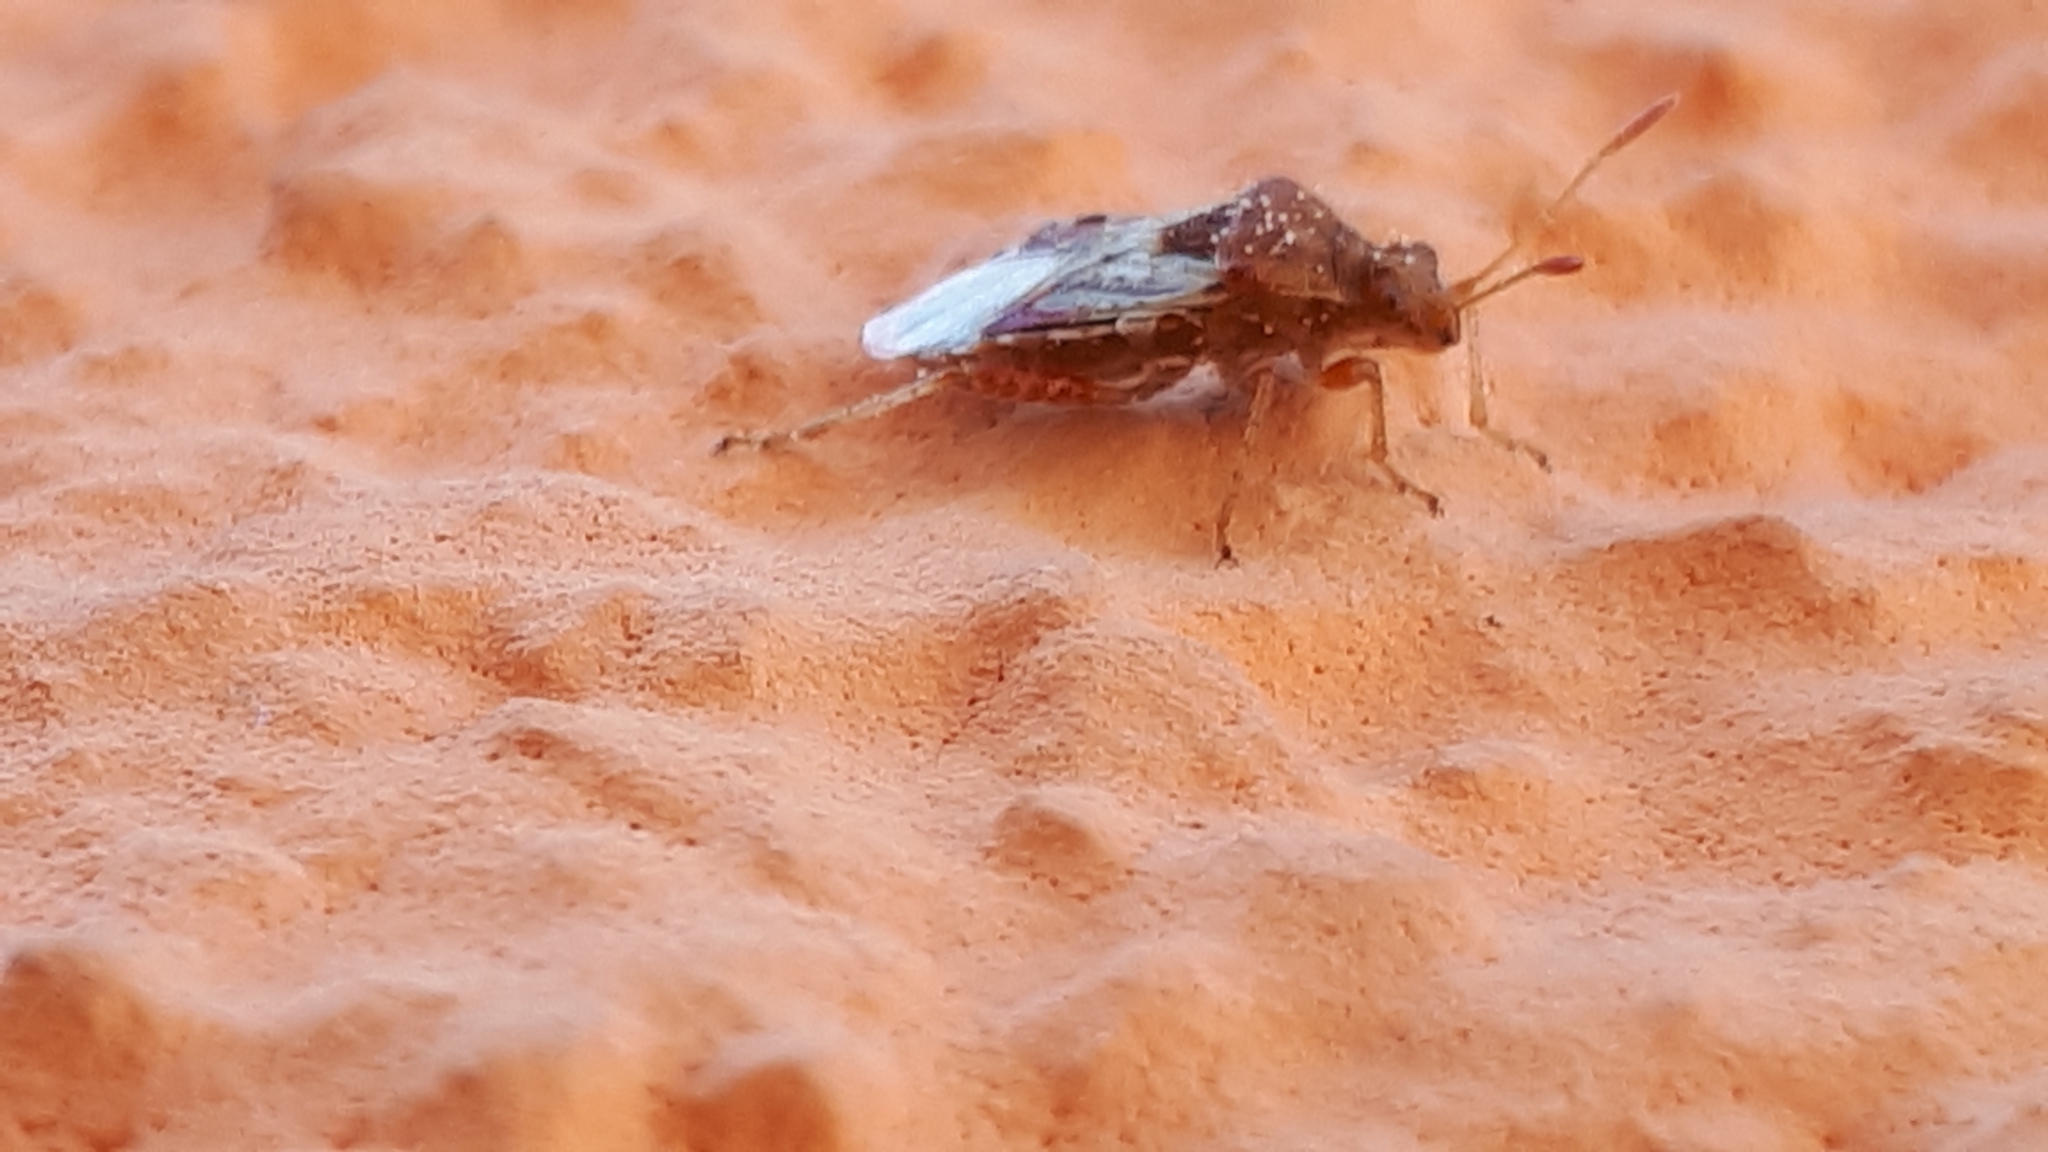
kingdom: Animalia
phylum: Arthropoda
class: Insecta
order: Hemiptera
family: Rhopalidae
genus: Rhopalus
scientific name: Rhopalus subrufus
